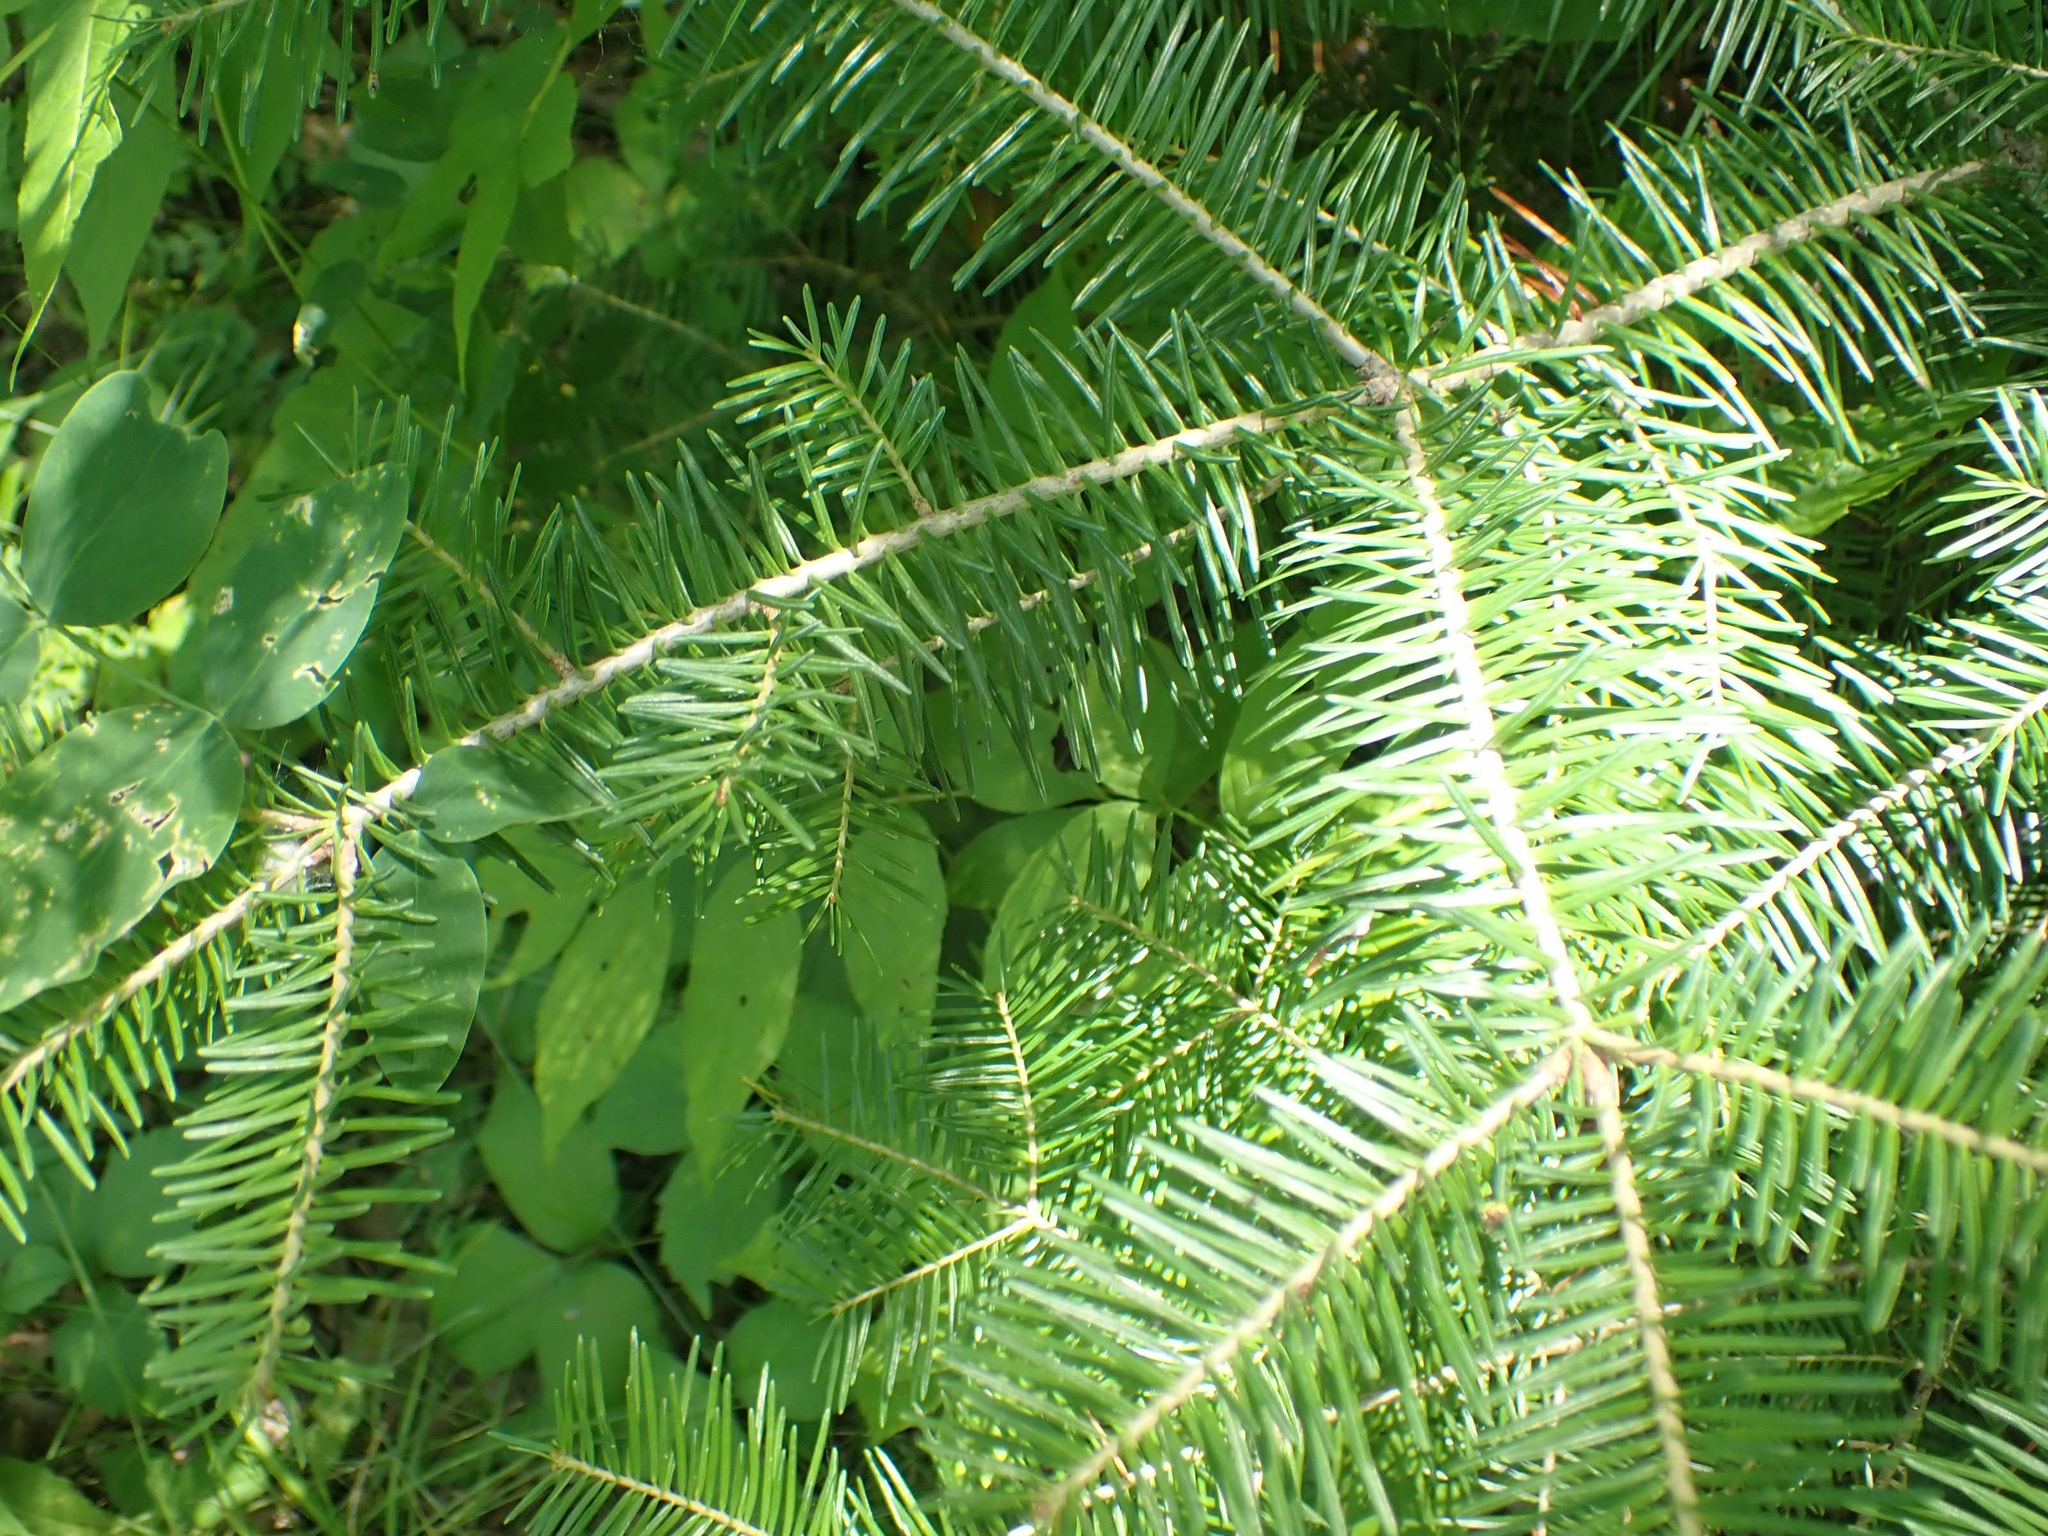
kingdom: Plantae
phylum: Tracheophyta
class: Pinopsida
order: Pinales
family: Pinaceae
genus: Abies
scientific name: Abies balsamea
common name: Balsam fir
